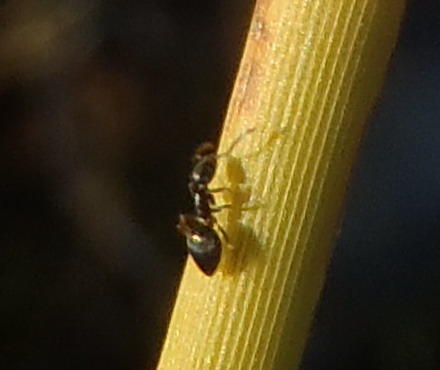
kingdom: Animalia
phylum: Arthropoda
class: Insecta
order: Hymenoptera
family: Formicidae
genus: Tapinoma
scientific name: Tapinoma pallipes
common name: Ant
